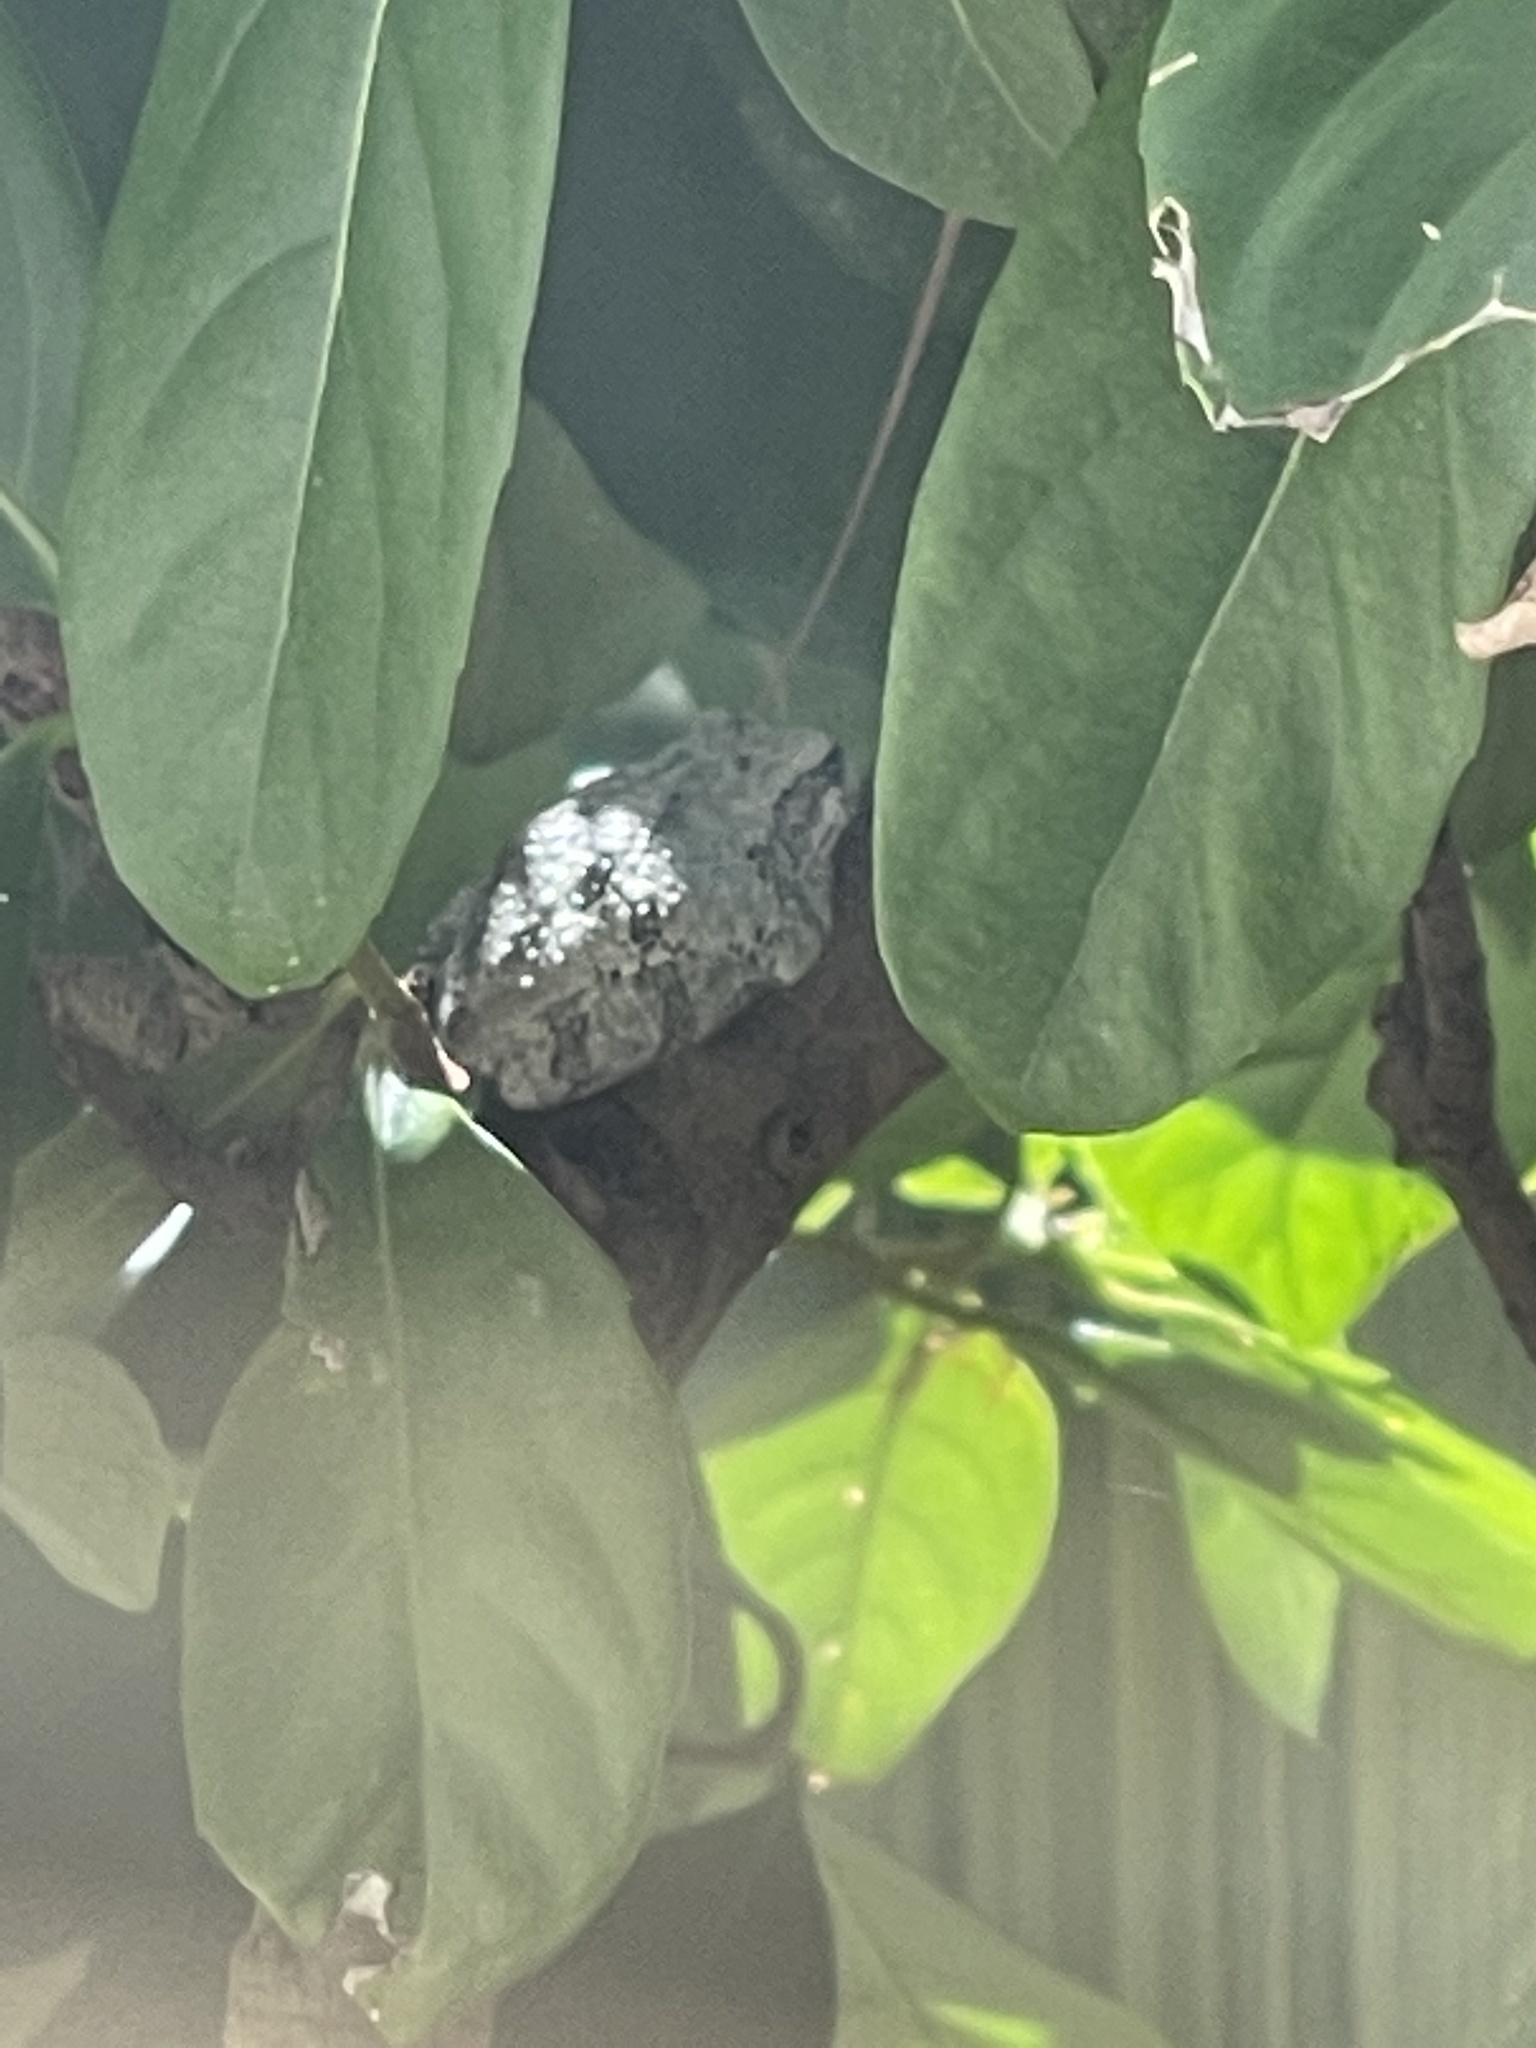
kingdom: Animalia
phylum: Chordata
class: Amphibia
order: Anura
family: Hylidae
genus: Dryophytes
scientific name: Dryophytes chrysoscelis
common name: Cope's gray treefrog
